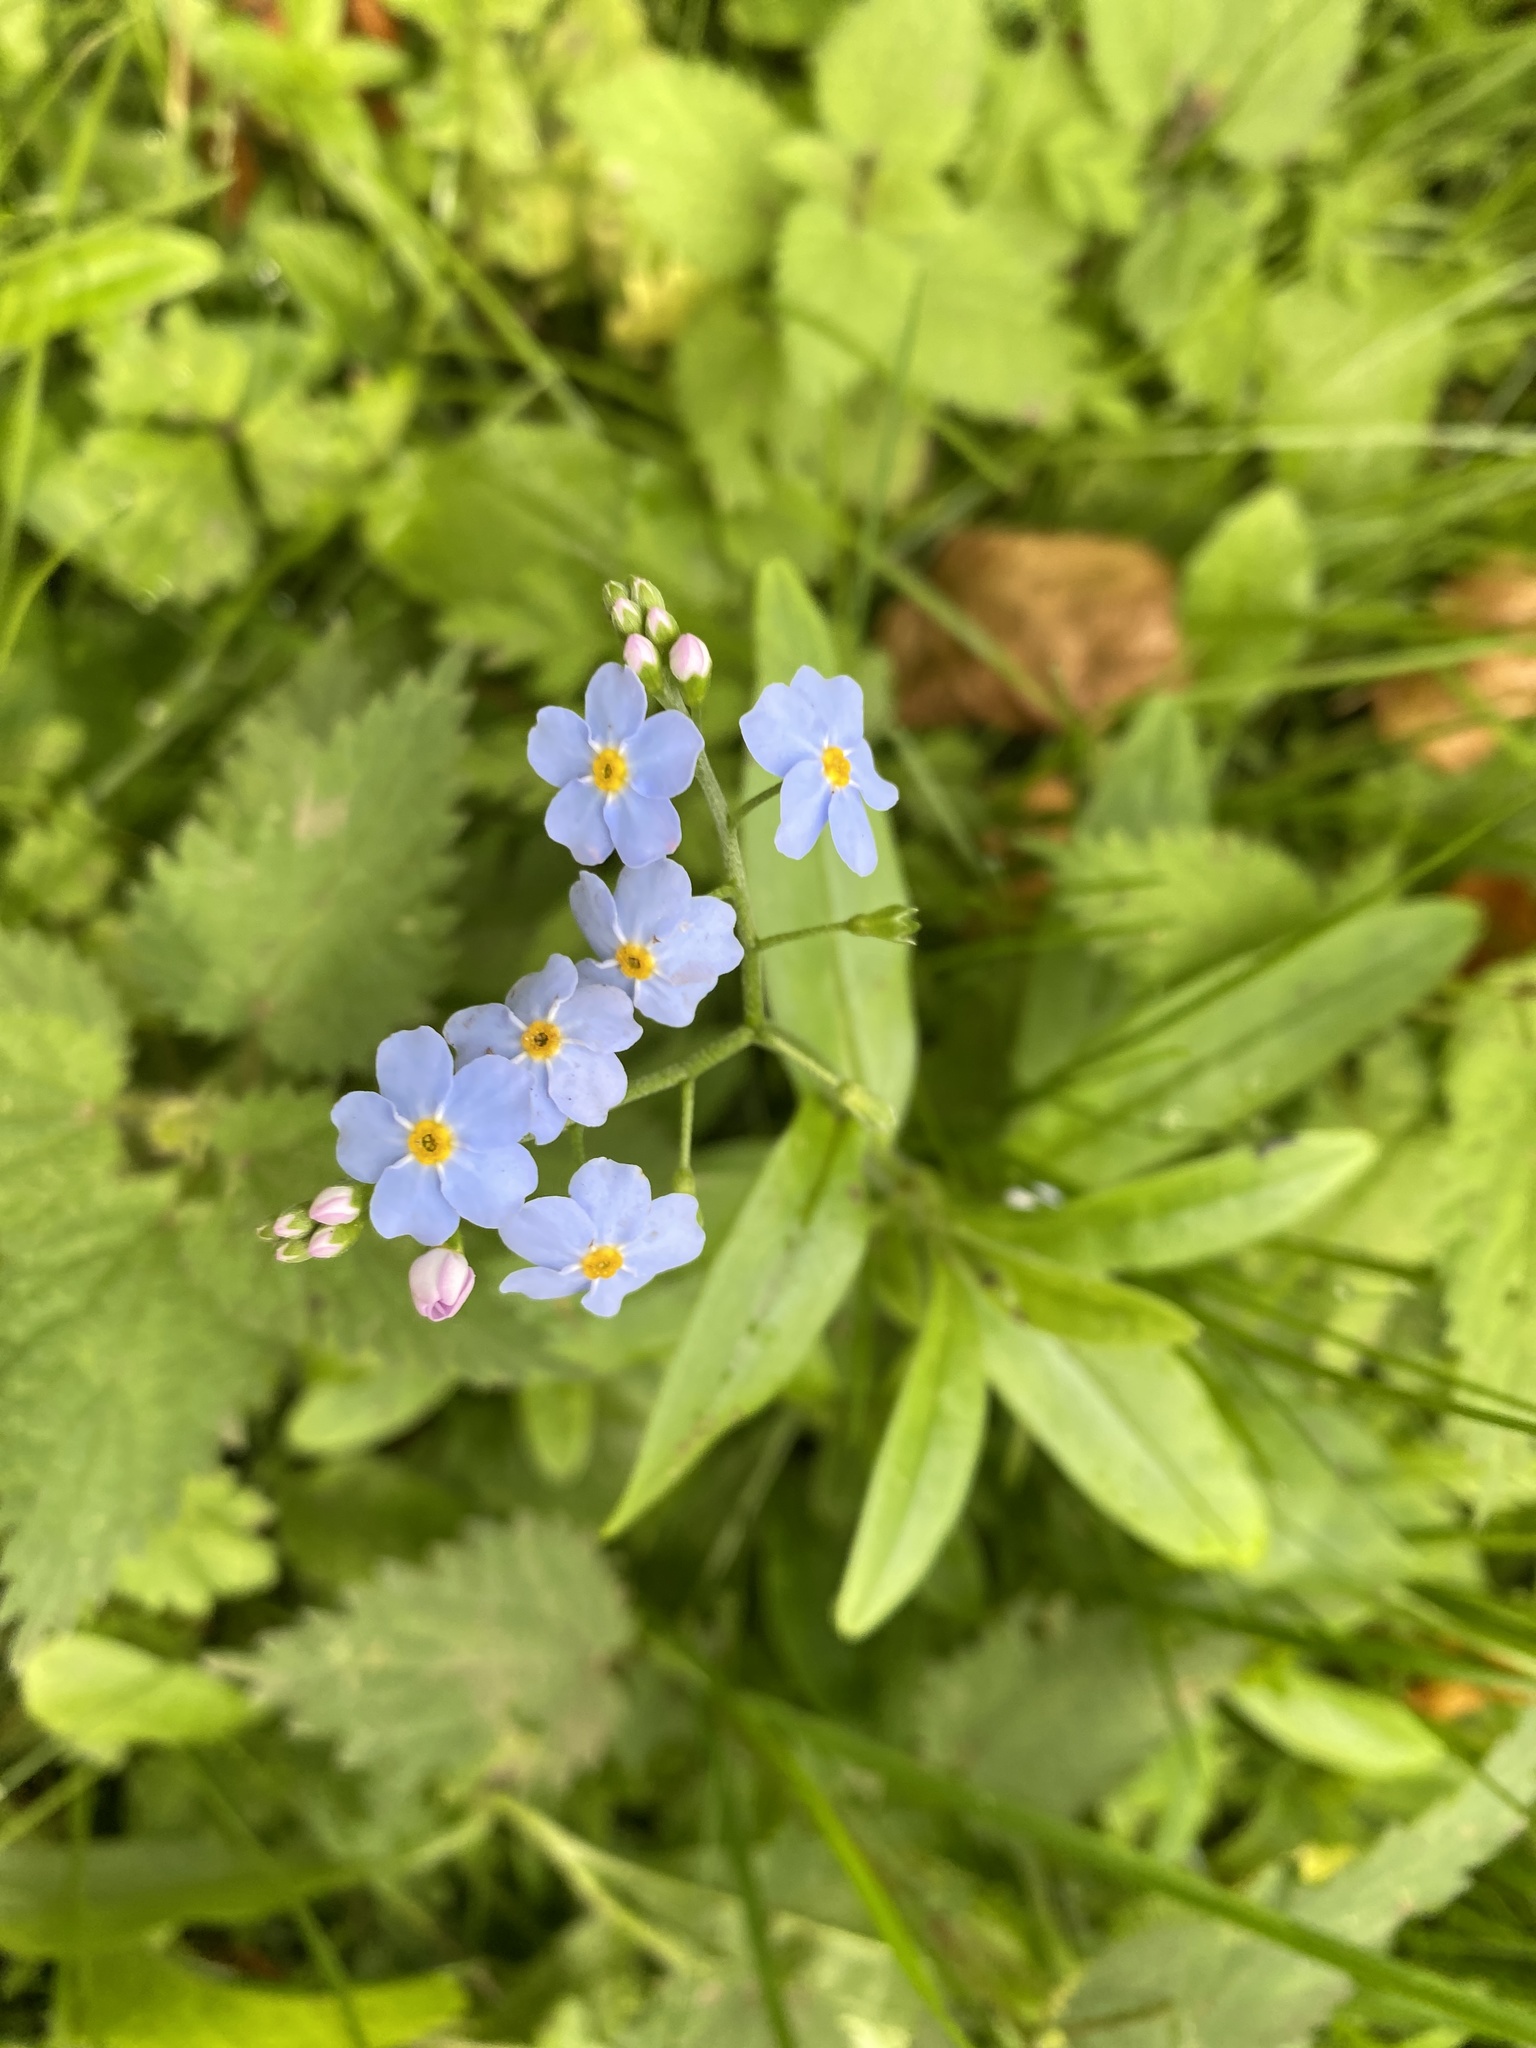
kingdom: Plantae
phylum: Tracheophyta
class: Magnoliopsida
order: Boraginales
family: Boraginaceae
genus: Myosotis
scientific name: Myosotis scorpioides
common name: Water forget-me-not
